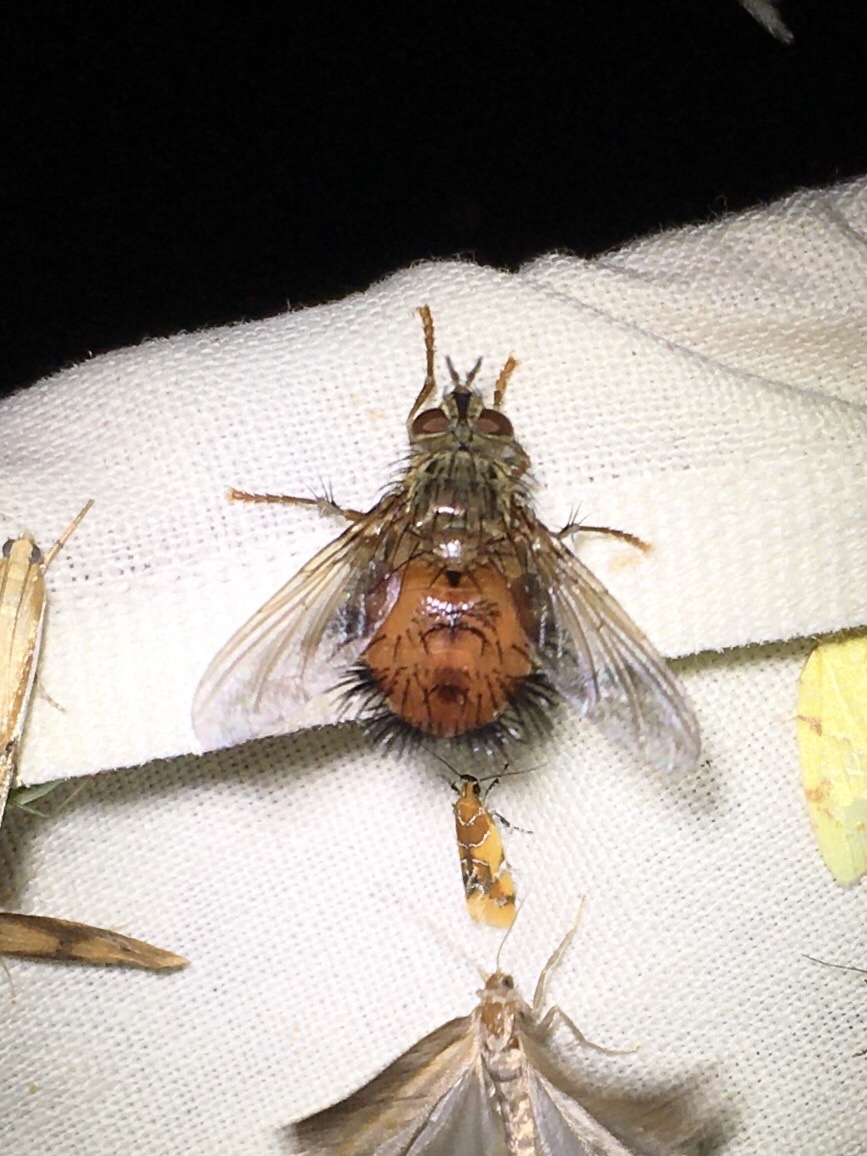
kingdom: Animalia
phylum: Arthropoda
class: Insecta
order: Diptera
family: Tachinidae
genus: Hystricia
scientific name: Hystricia abrupta
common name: Tomato bristle fly
